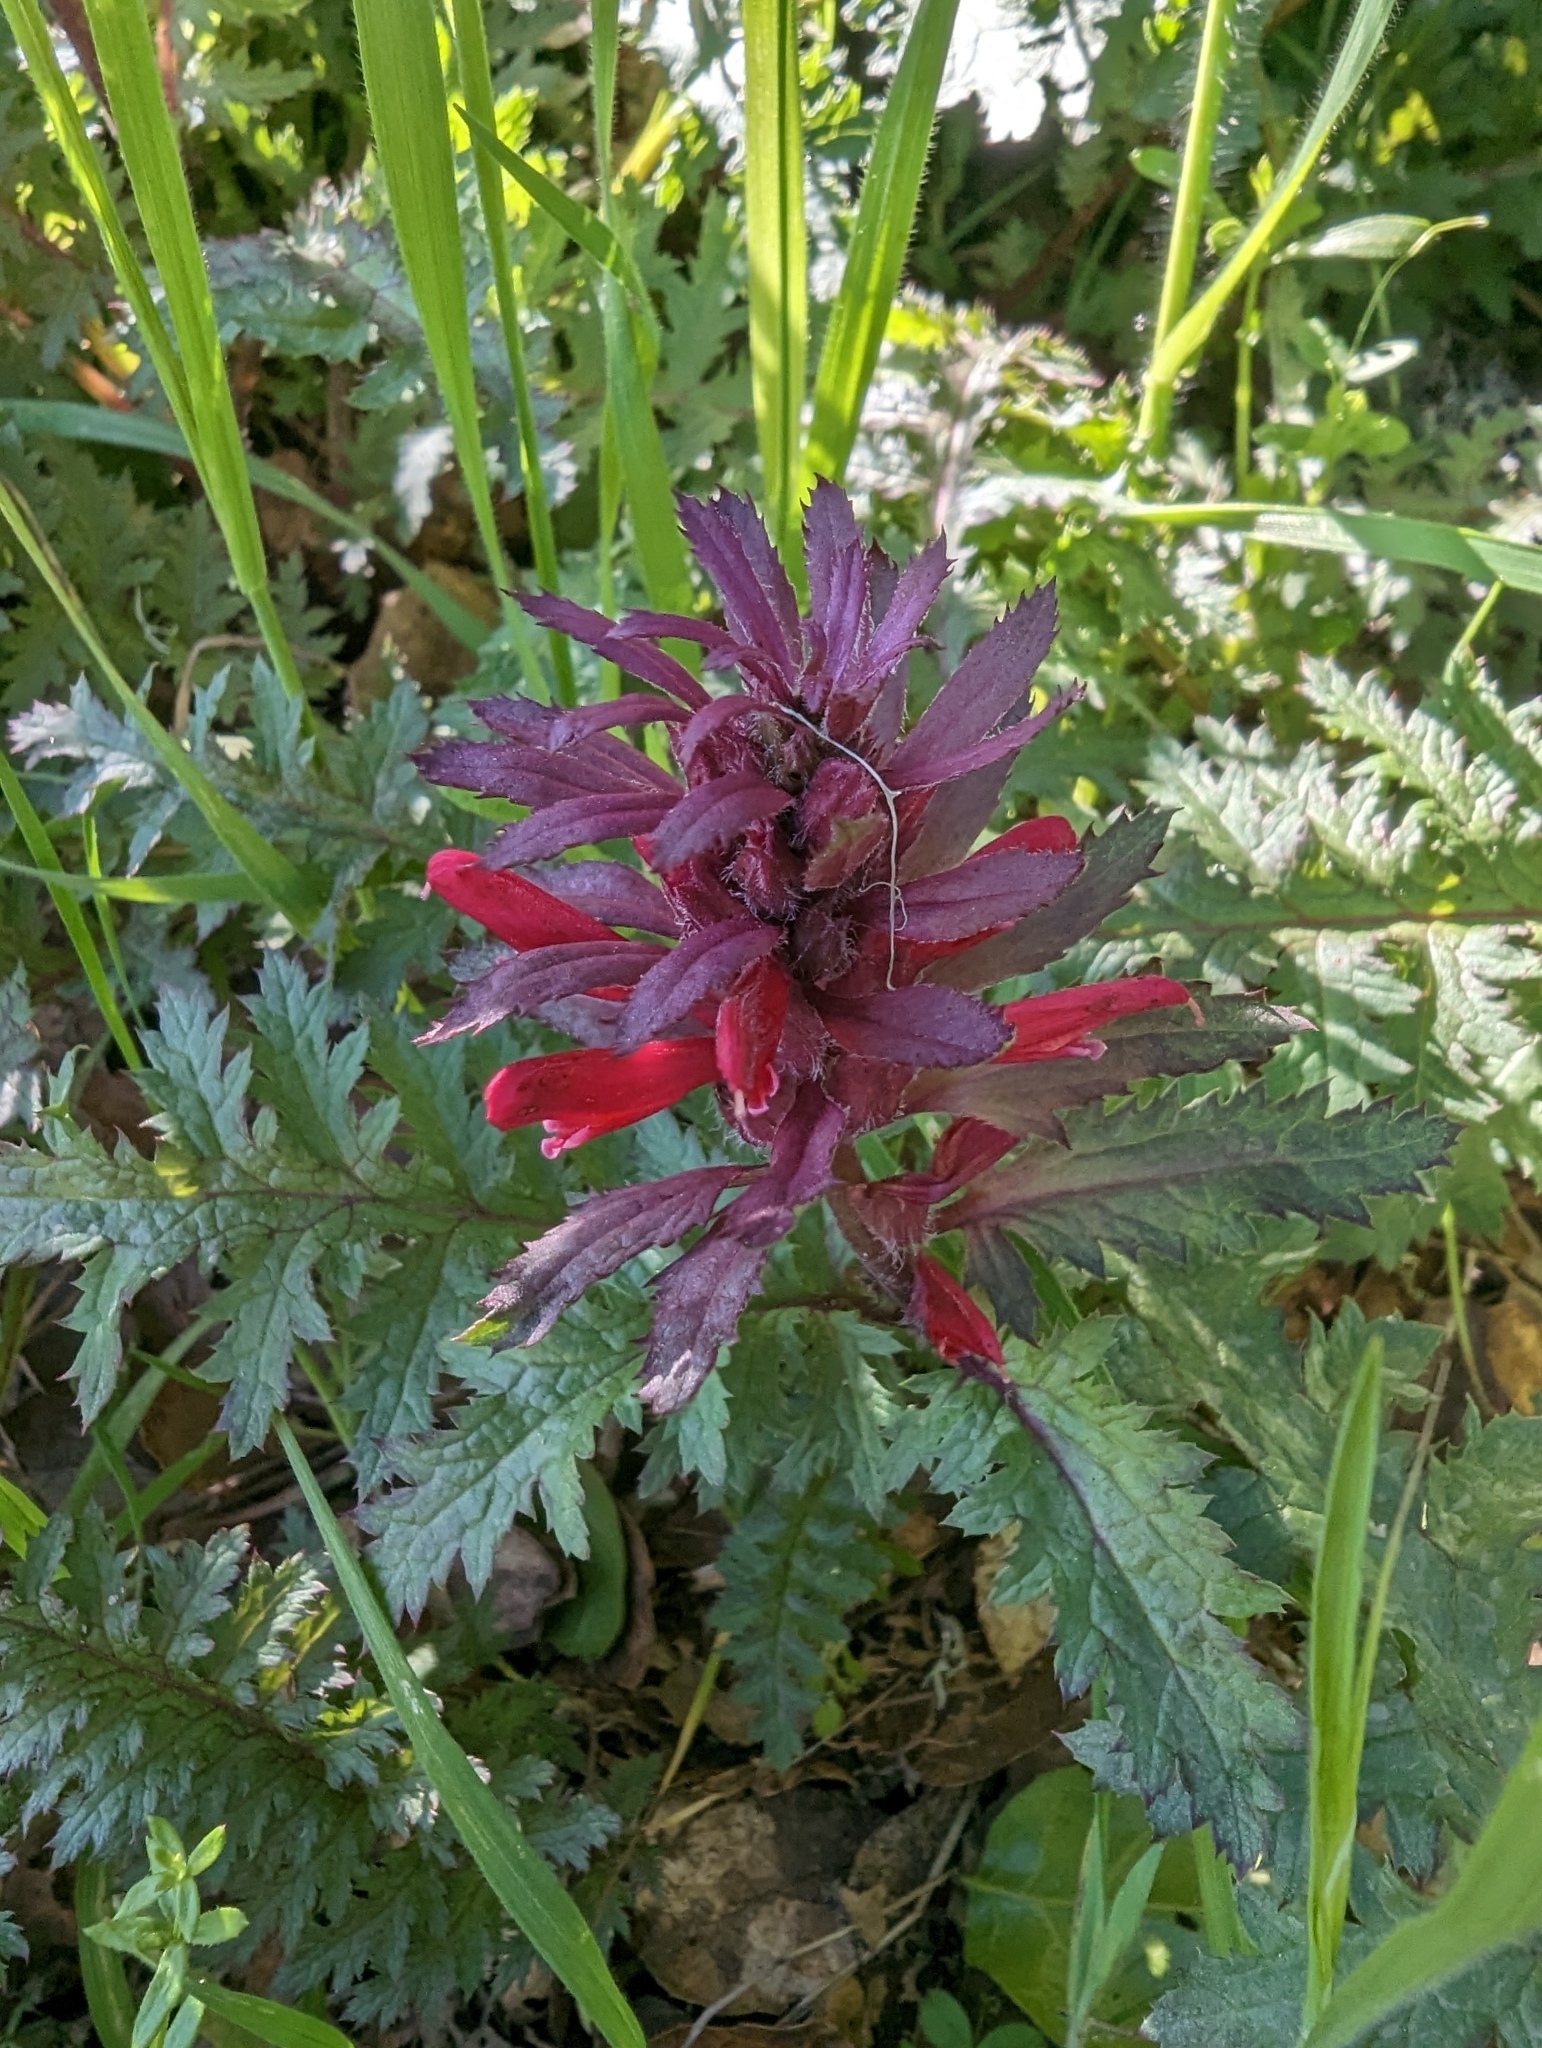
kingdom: Plantae
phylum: Tracheophyta
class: Magnoliopsida
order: Lamiales
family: Orobanchaceae
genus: Pedicularis
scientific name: Pedicularis densiflora
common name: Indian warrior
